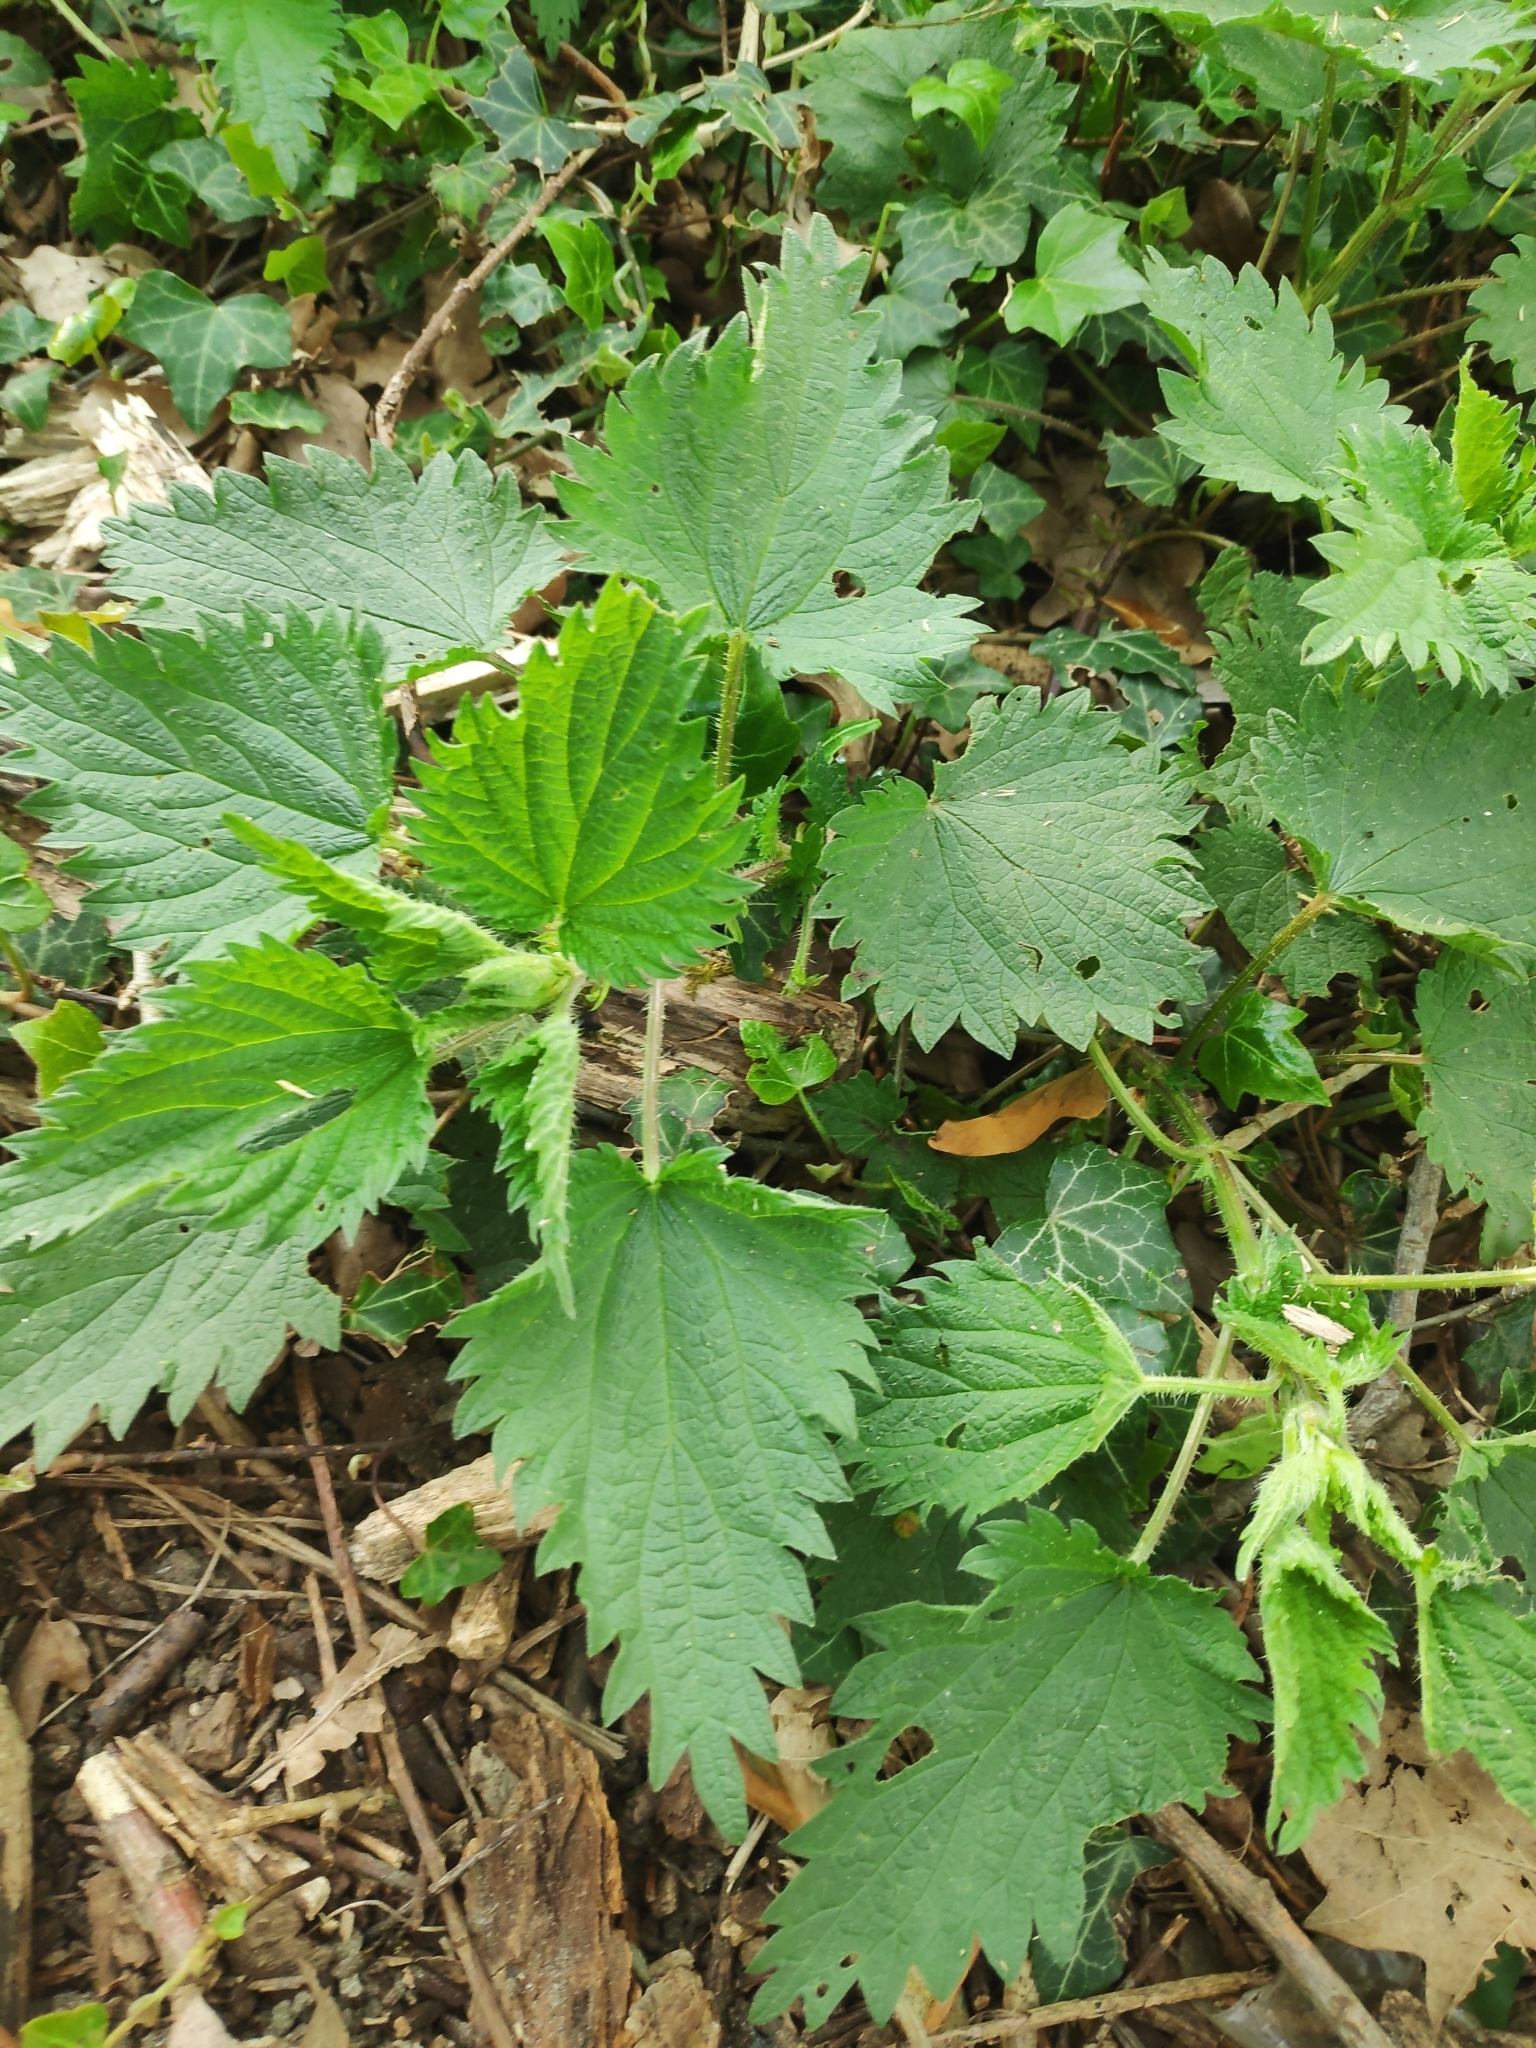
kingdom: Plantae
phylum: Tracheophyta
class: Magnoliopsida
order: Rosales
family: Urticaceae
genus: Urtica
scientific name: Urtica dioica
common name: Common nettle
